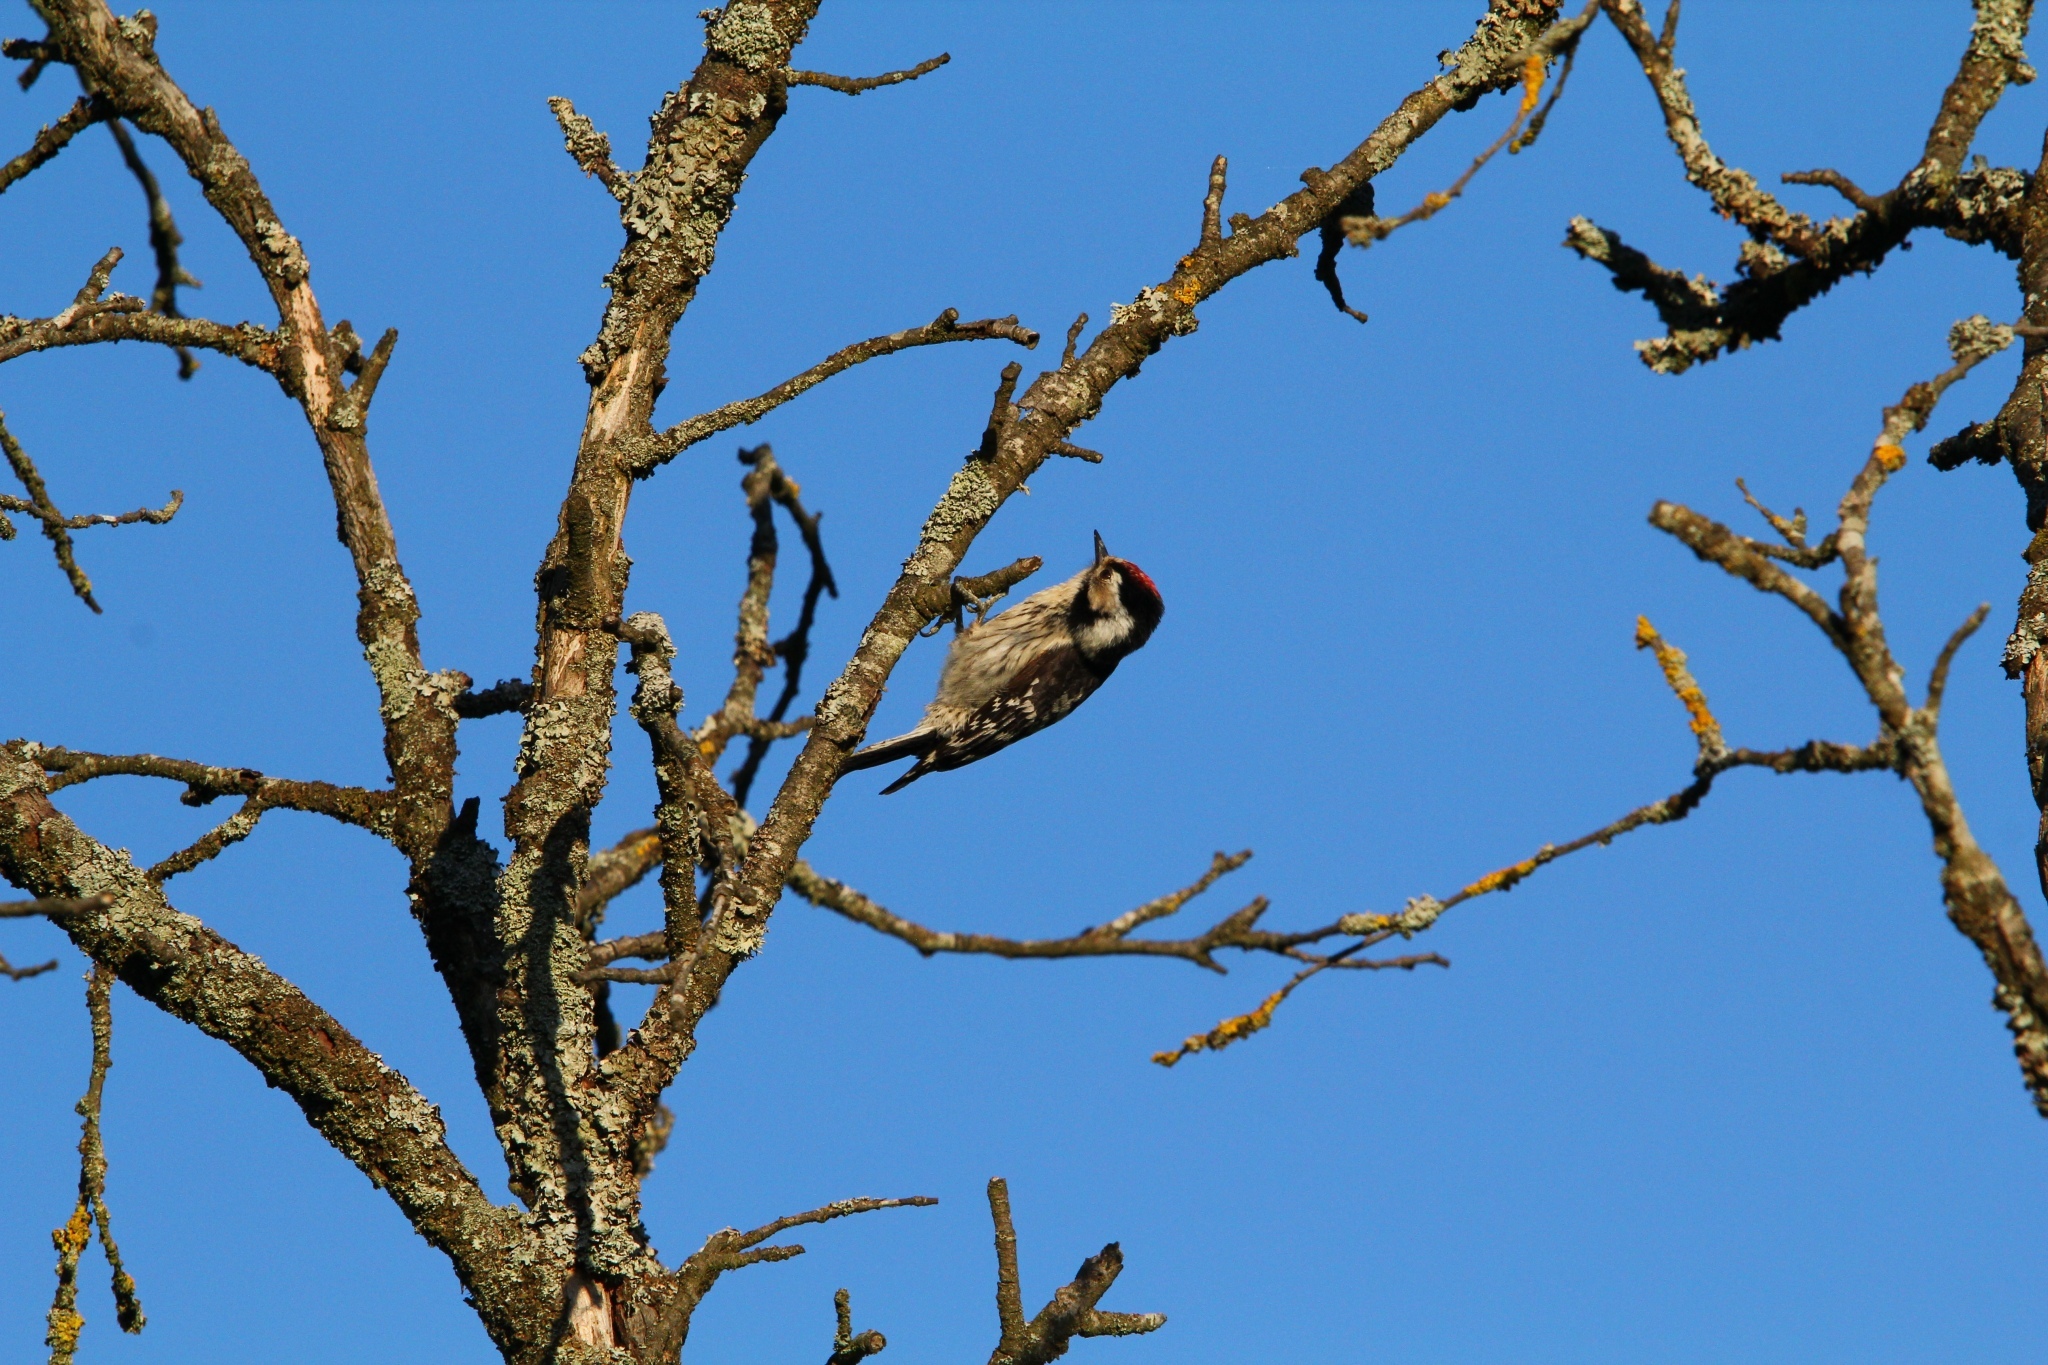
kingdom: Animalia
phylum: Chordata
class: Aves
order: Piciformes
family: Picidae
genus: Dryobates
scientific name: Dryobates minor
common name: Lesser spotted woodpecker
